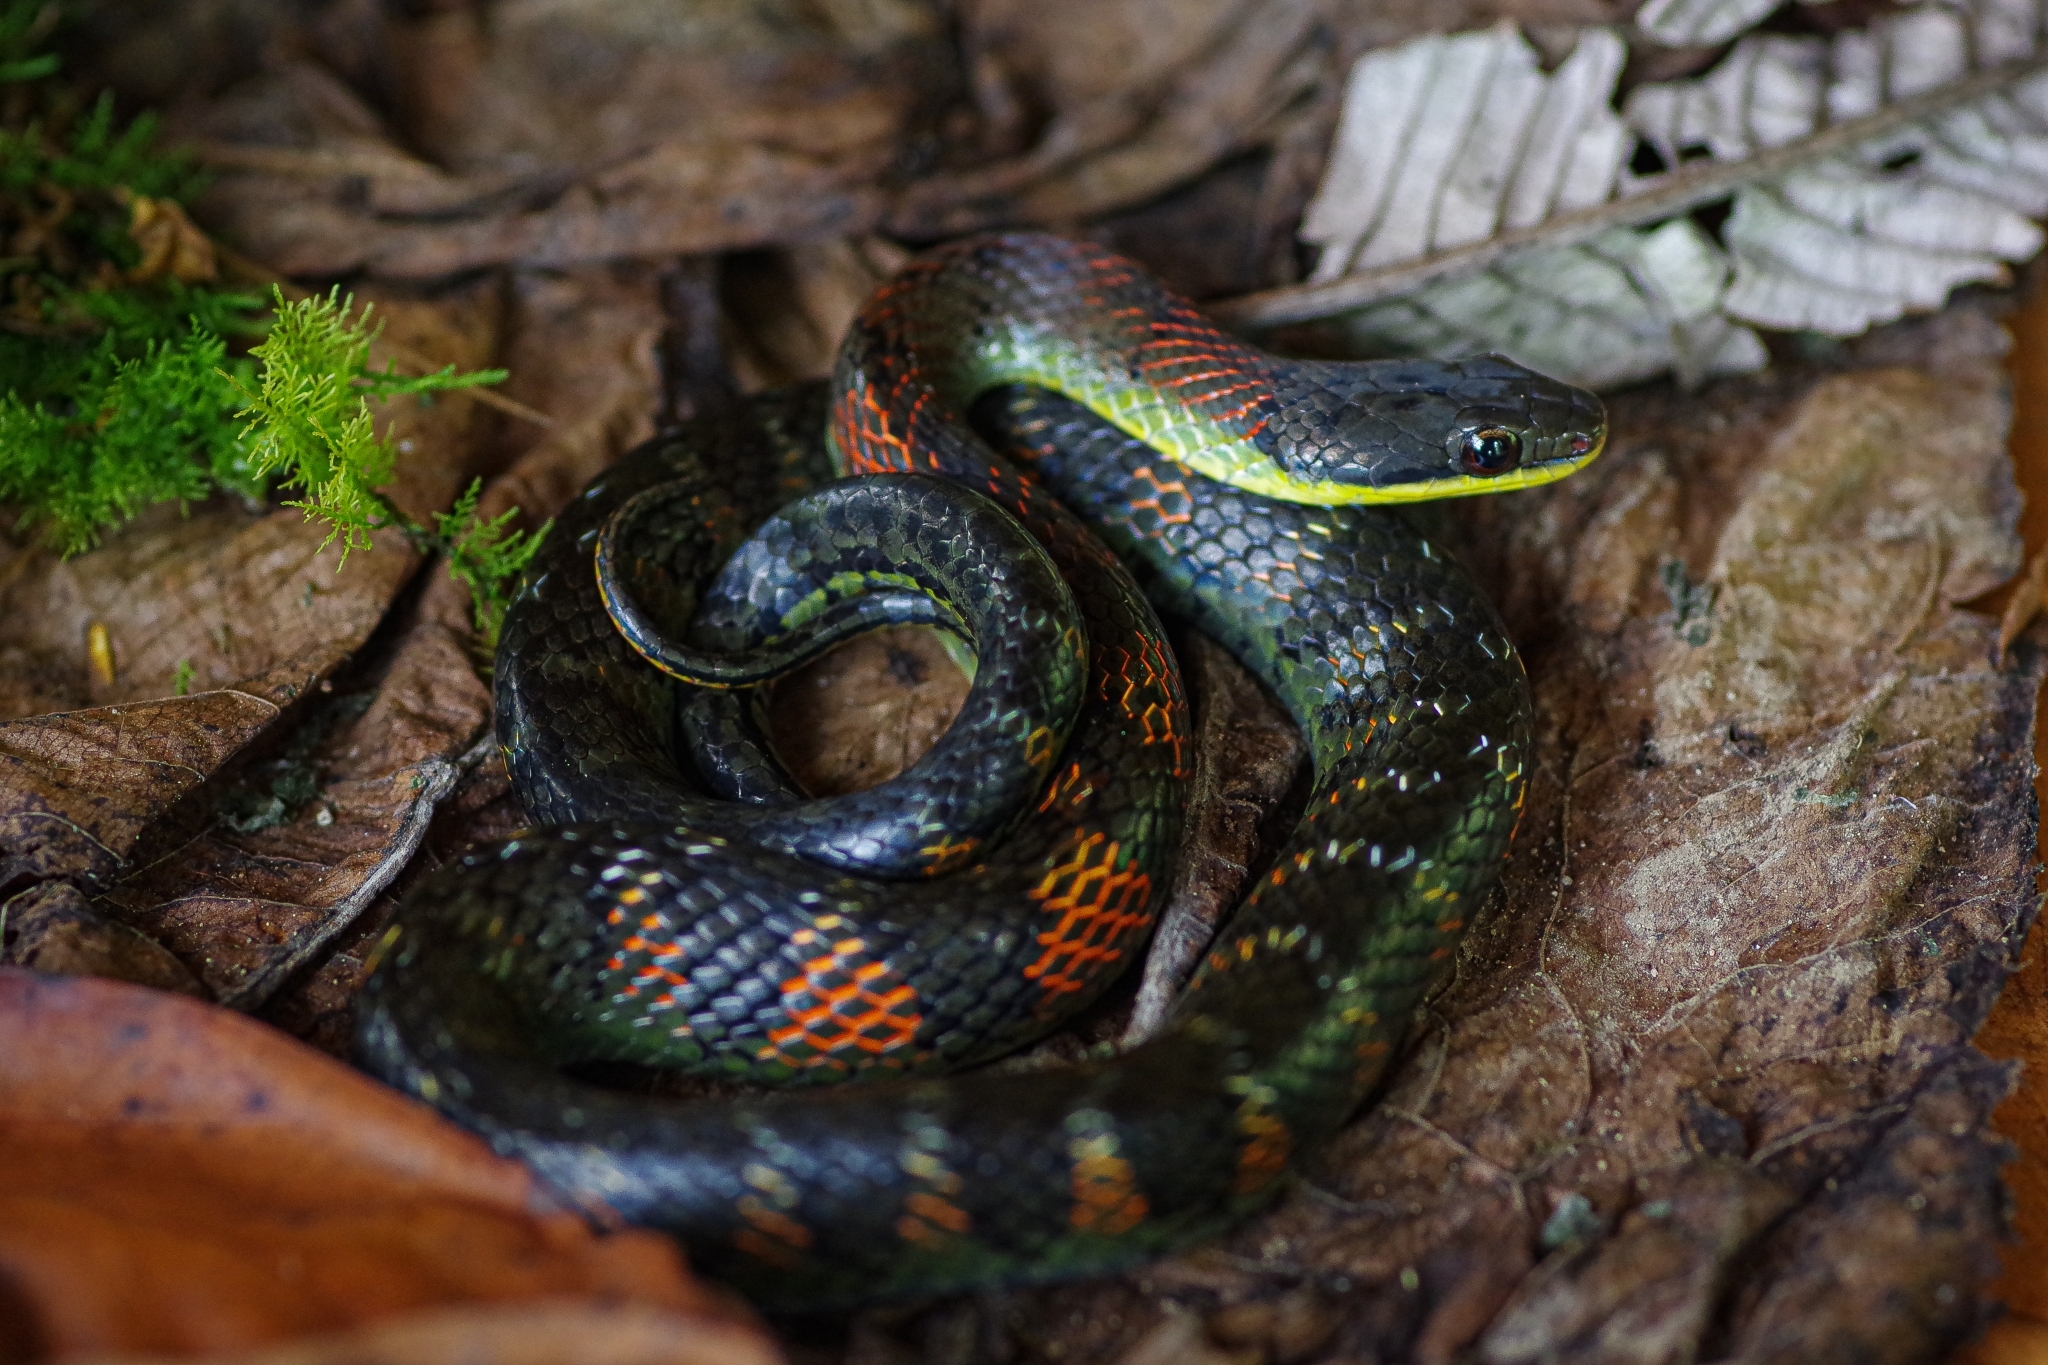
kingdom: Animalia
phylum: Chordata
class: Squamata
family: Colubridae
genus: Erythrolamprus
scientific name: Erythrolamprus epinephalus
